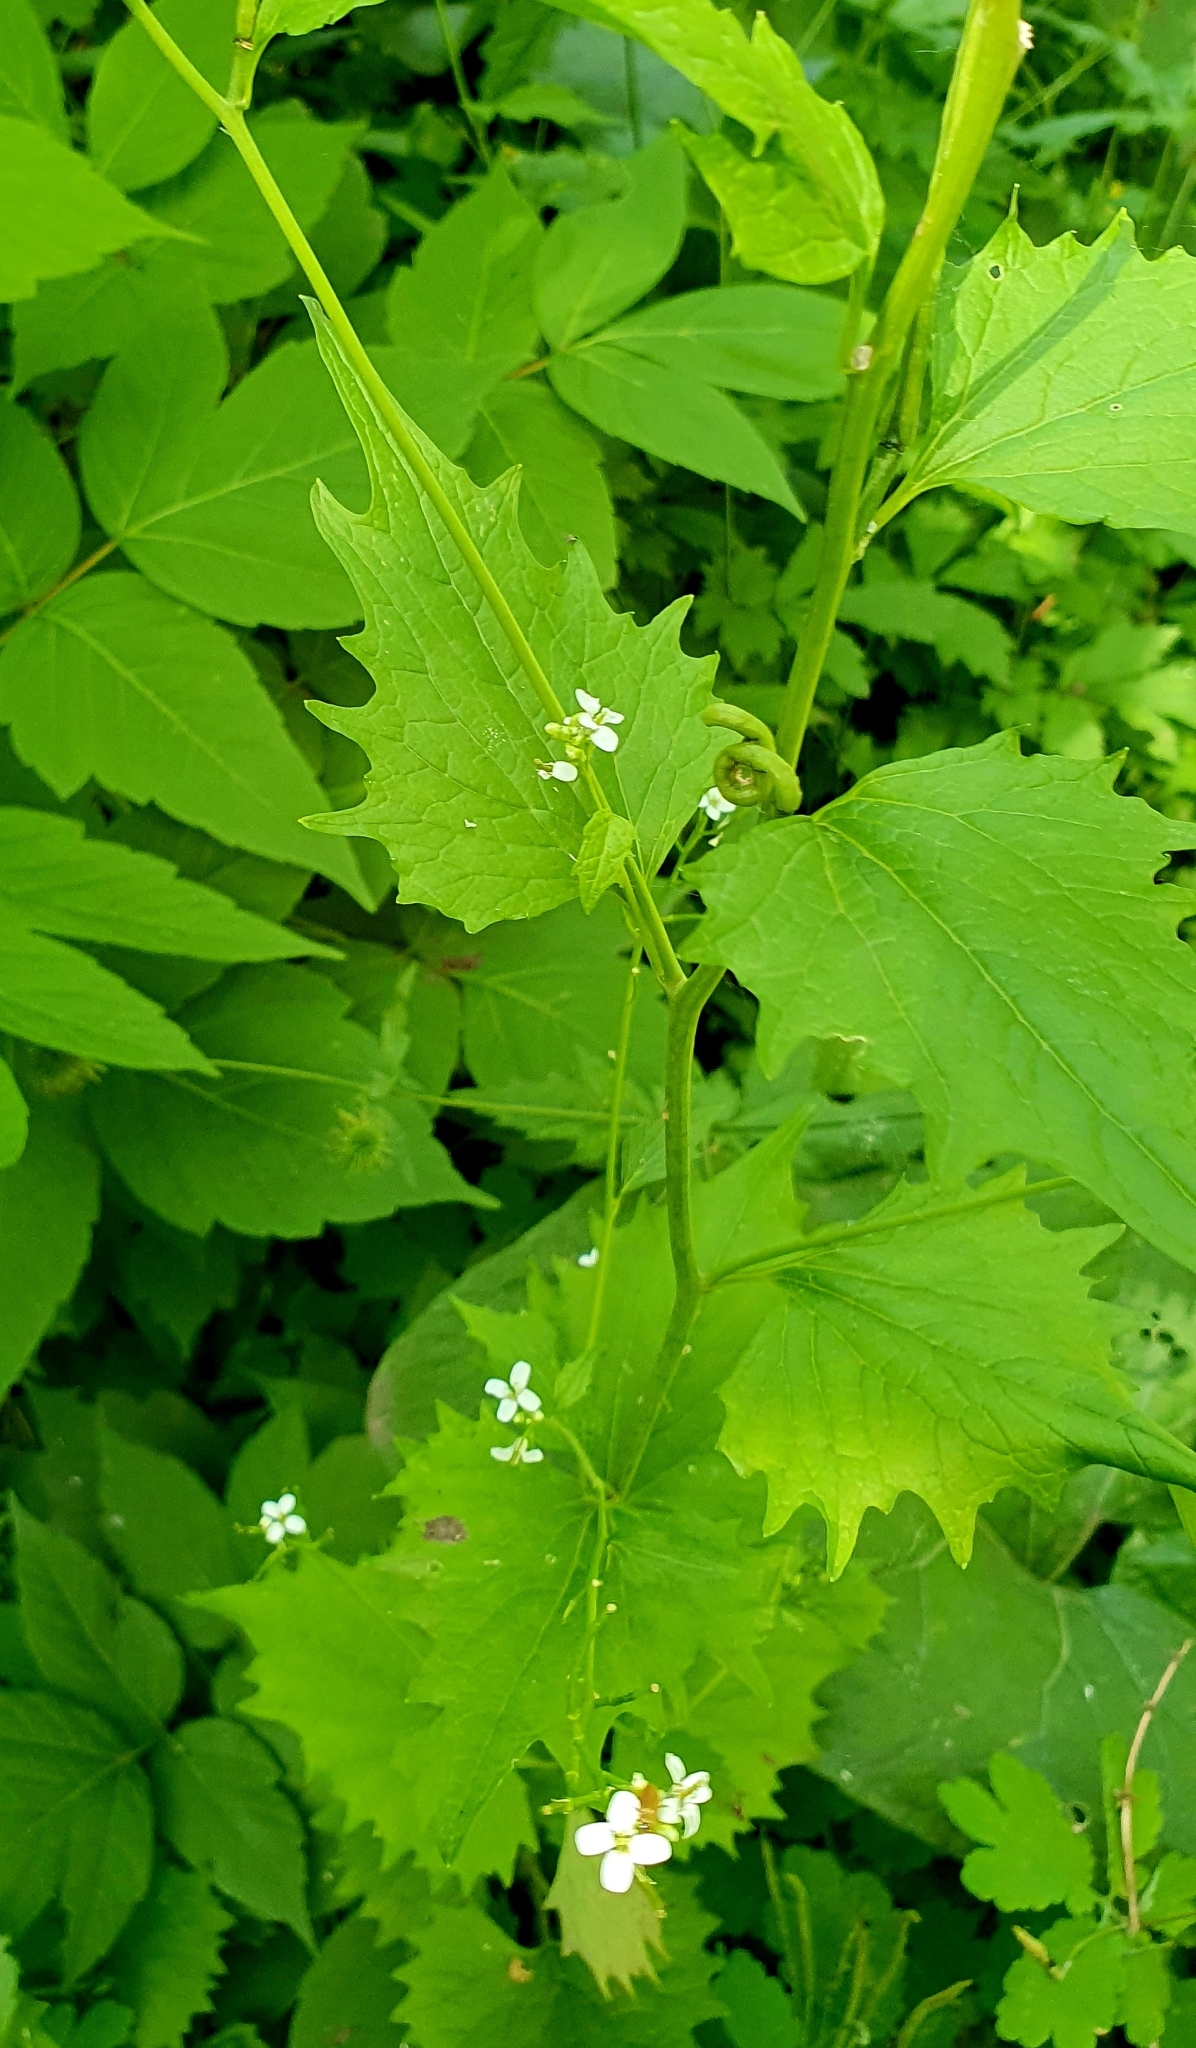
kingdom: Plantae
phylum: Tracheophyta
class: Magnoliopsida
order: Brassicales
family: Brassicaceae
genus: Alliaria
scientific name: Alliaria petiolata
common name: Garlic mustard
